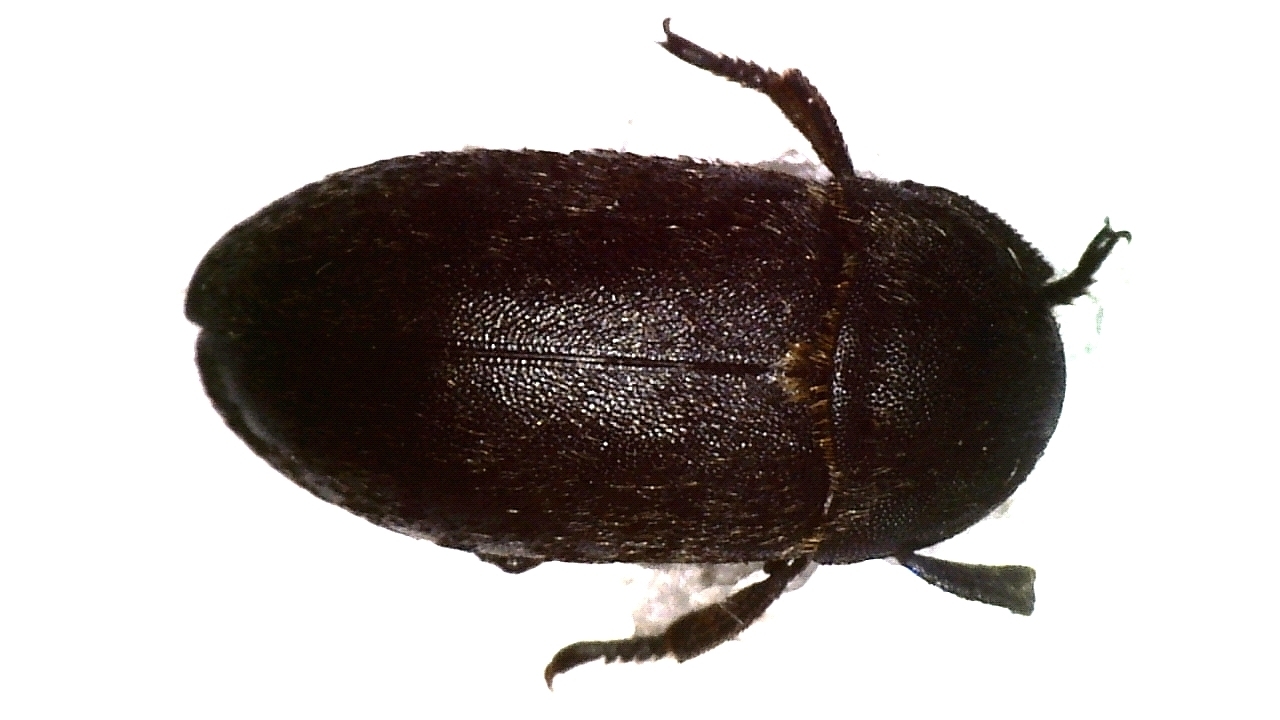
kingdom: Animalia
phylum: Arthropoda
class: Insecta
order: Coleoptera
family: Dermestidae
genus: Dermestes
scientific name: Dermestes laniarius
